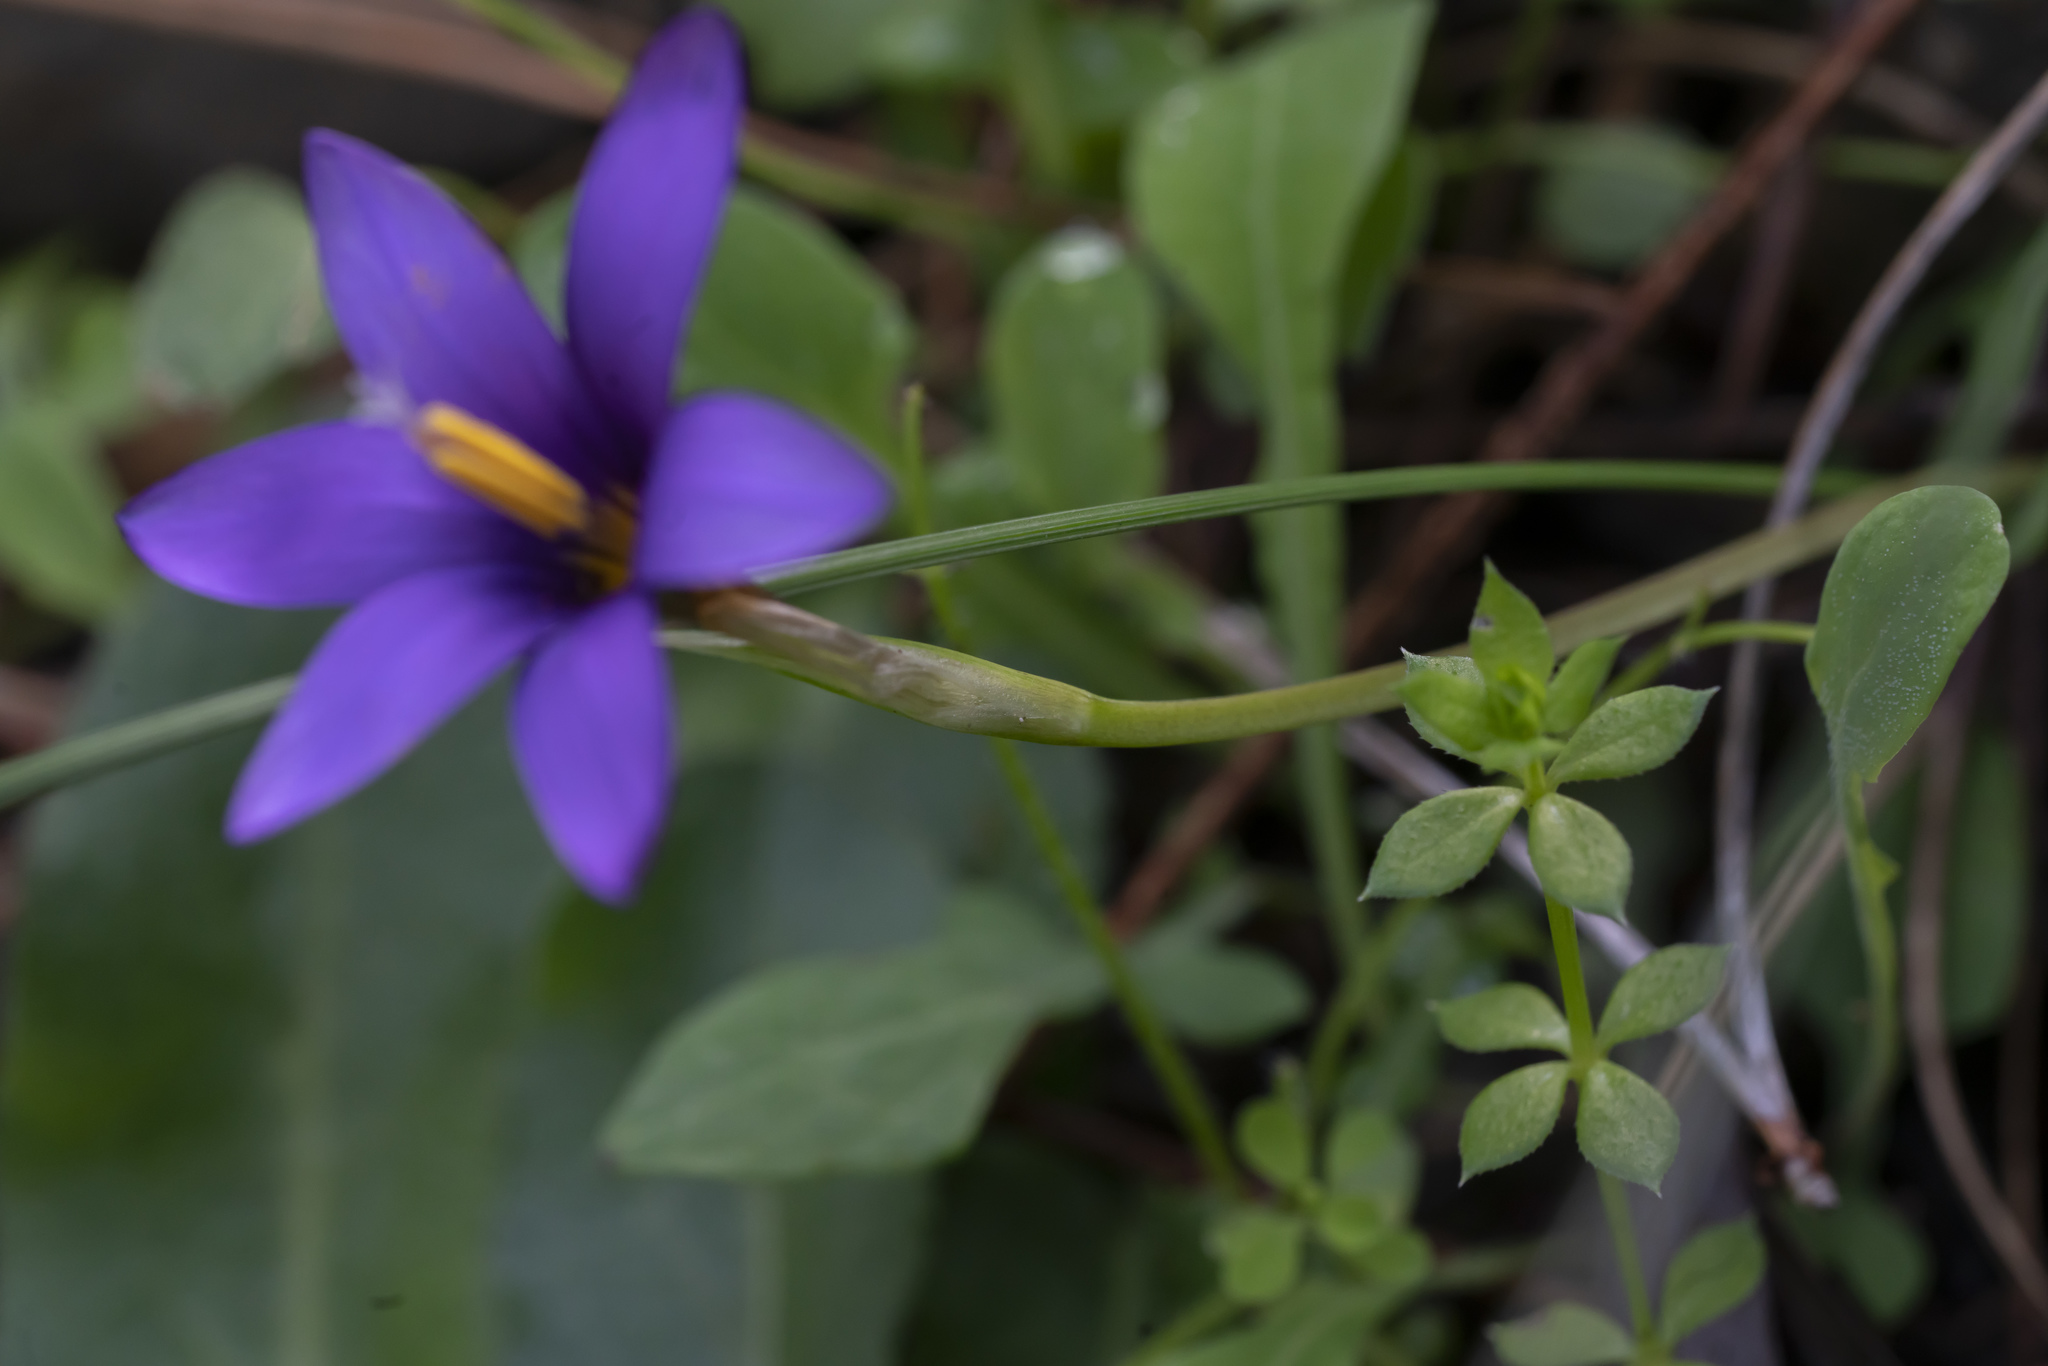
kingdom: Plantae
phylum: Tracheophyta
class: Liliopsida
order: Asparagales
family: Iridaceae
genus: Romulea
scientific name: Romulea tempskyana
